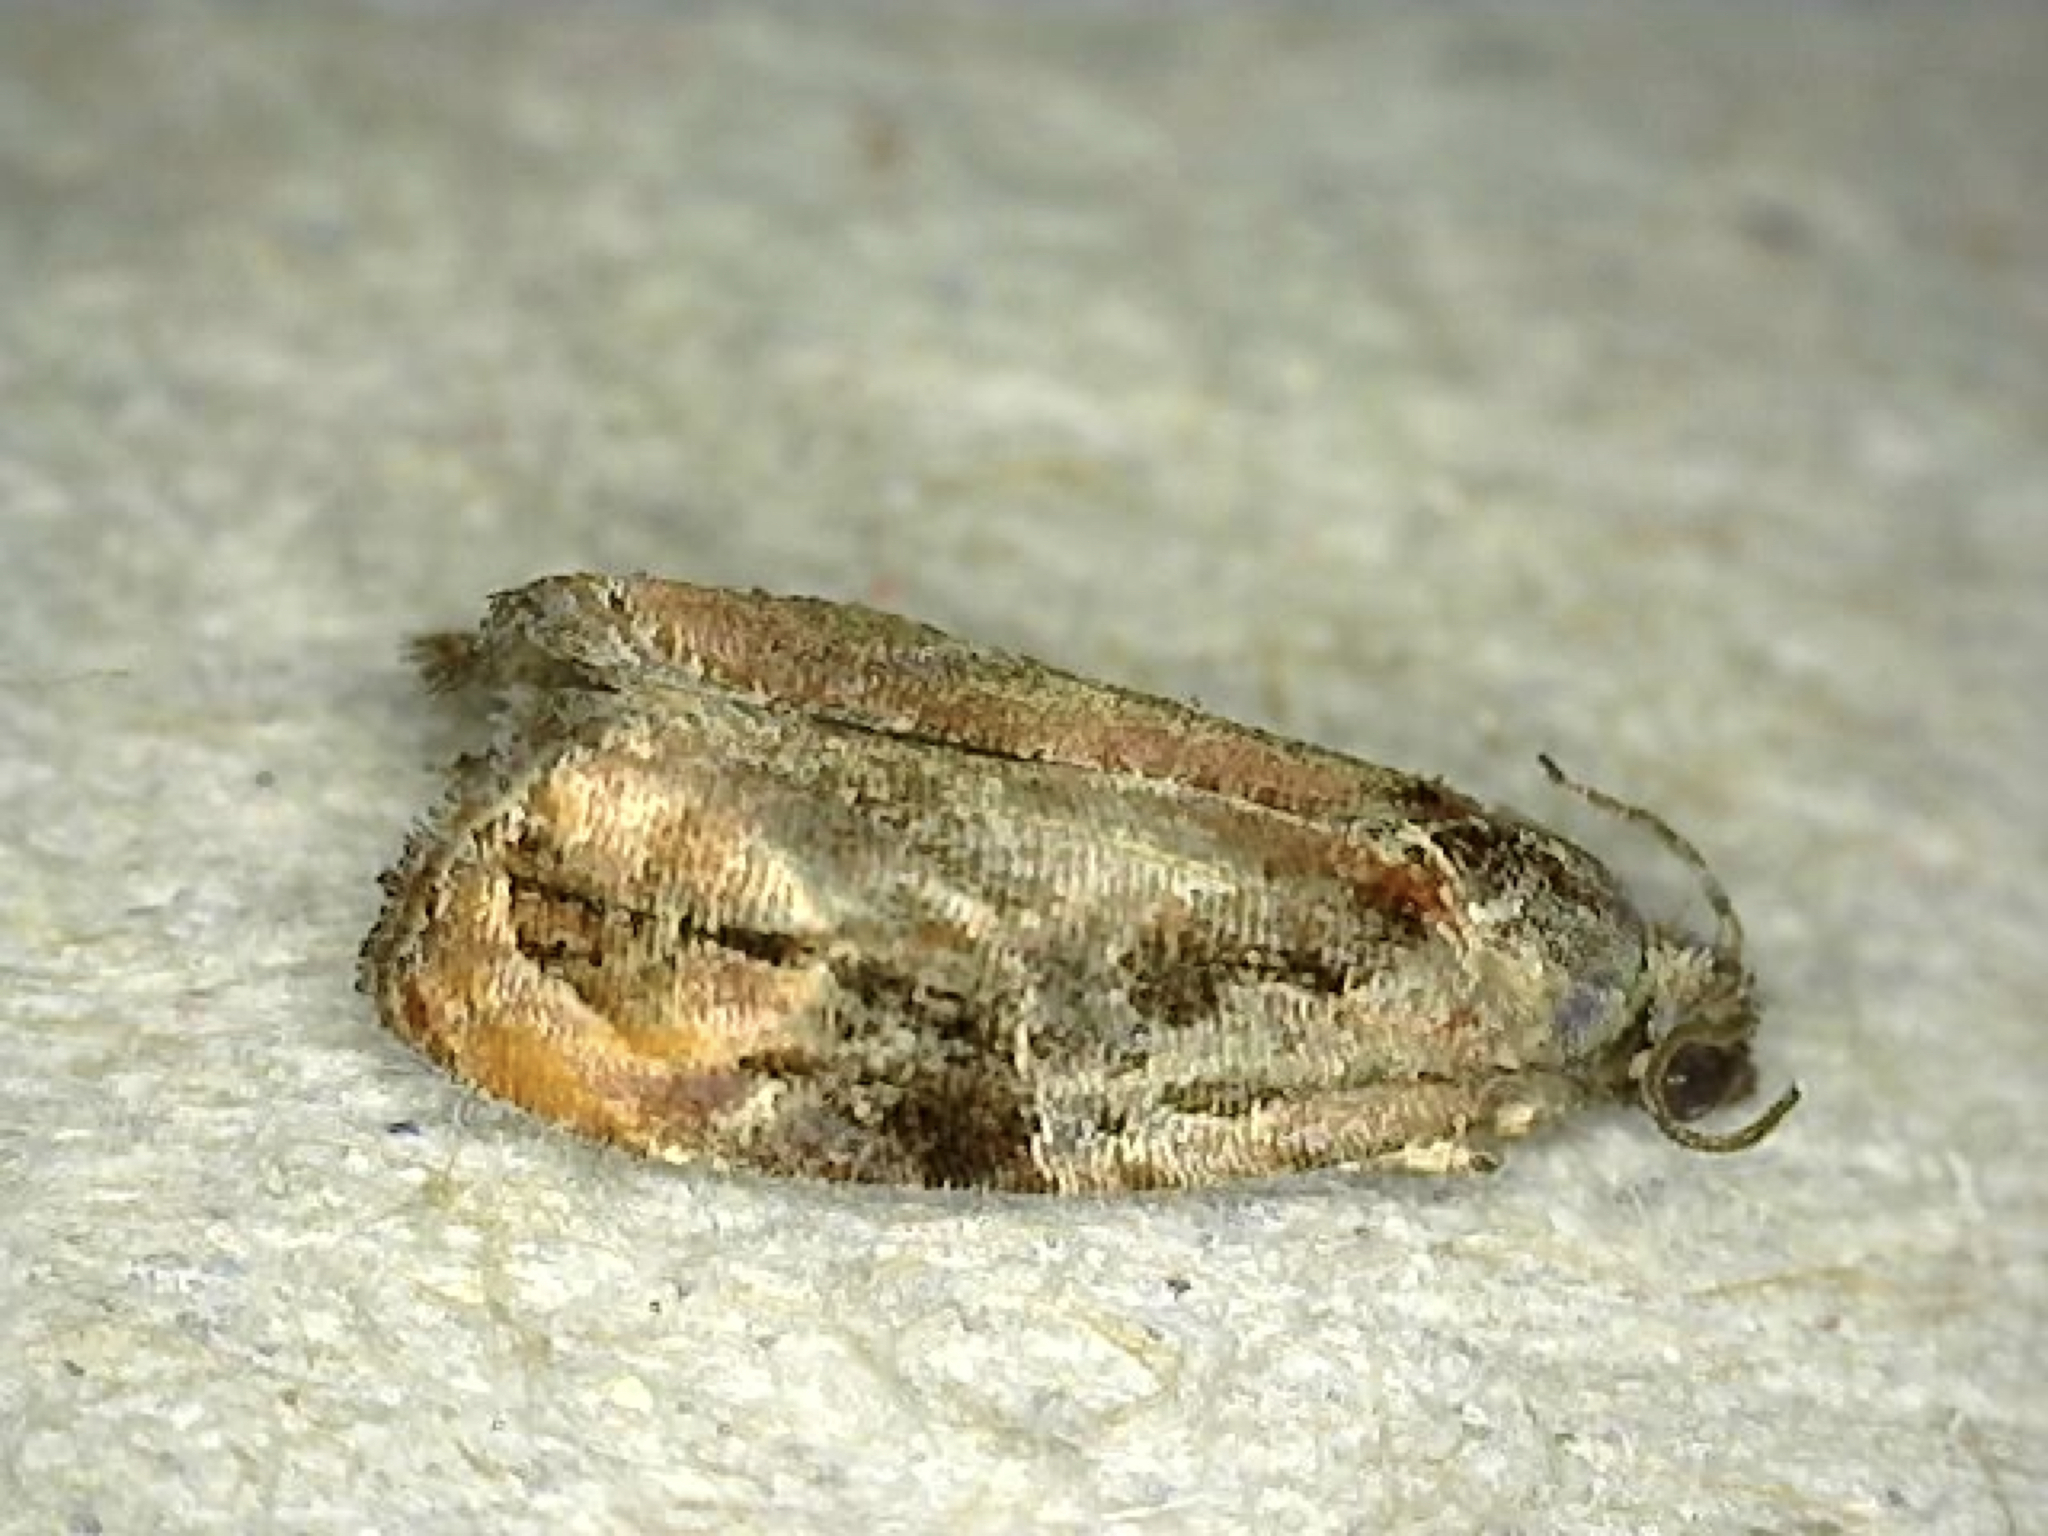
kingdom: Animalia
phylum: Arthropoda
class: Insecta
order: Lepidoptera
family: Tortricidae
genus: Zomaria
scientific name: Zomaria interruptolineana
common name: Broken-lined zomaria moth
